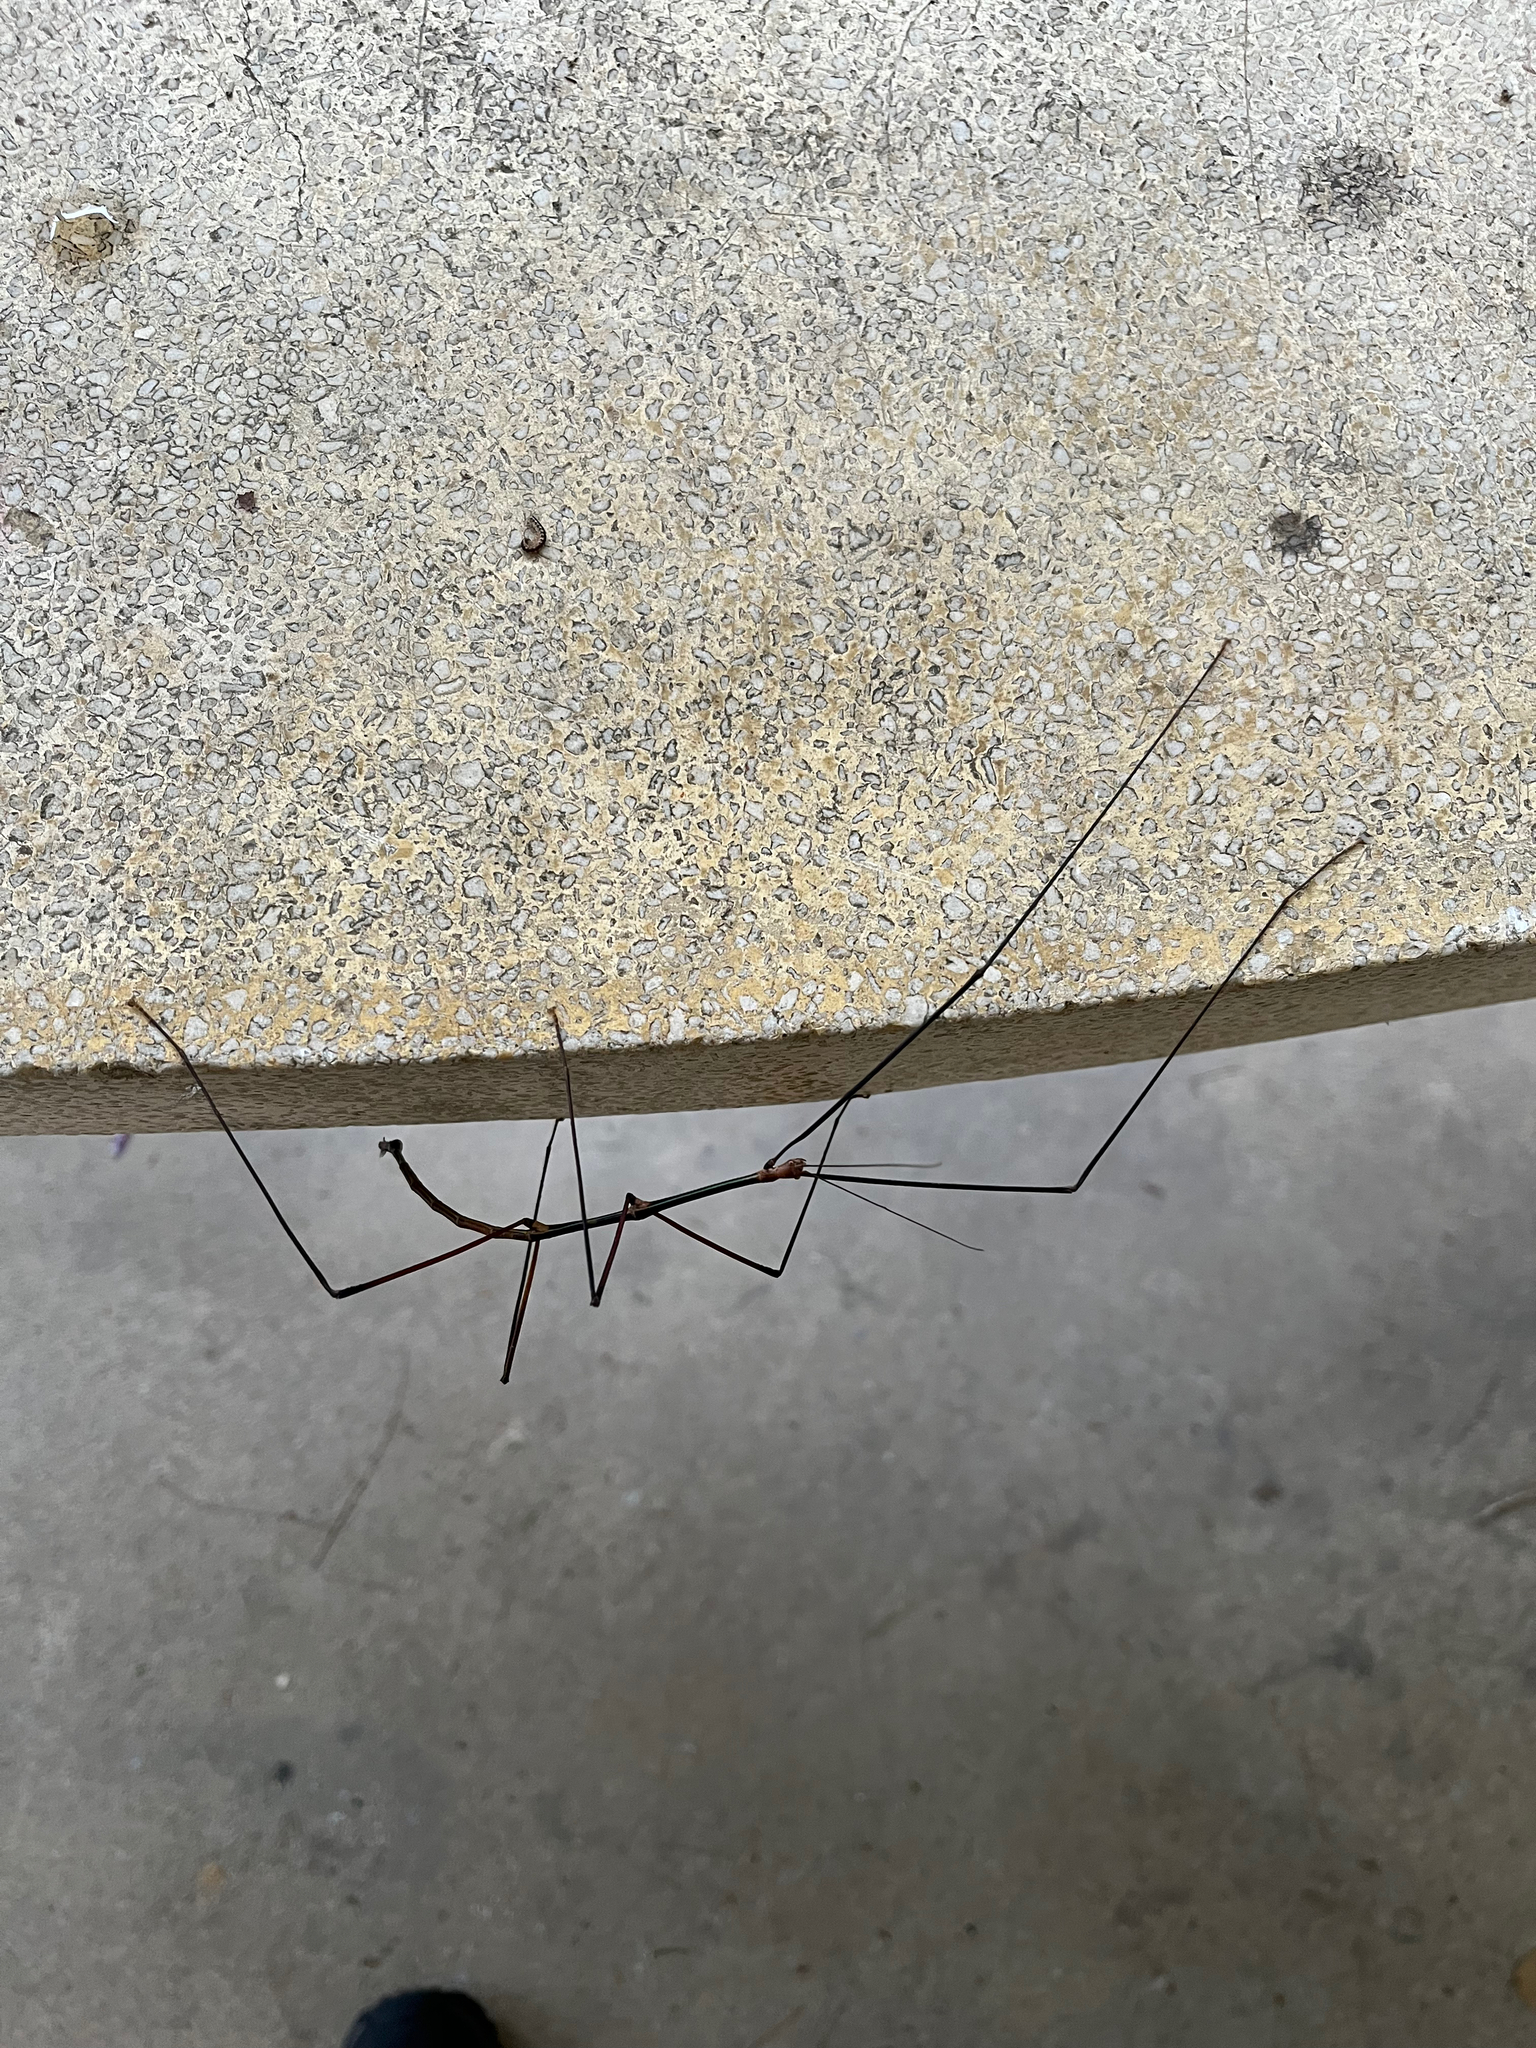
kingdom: Animalia
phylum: Arthropoda
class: Insecta
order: Phasmida
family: Phasmatidae
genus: Ramulus
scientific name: Ramulus caii
